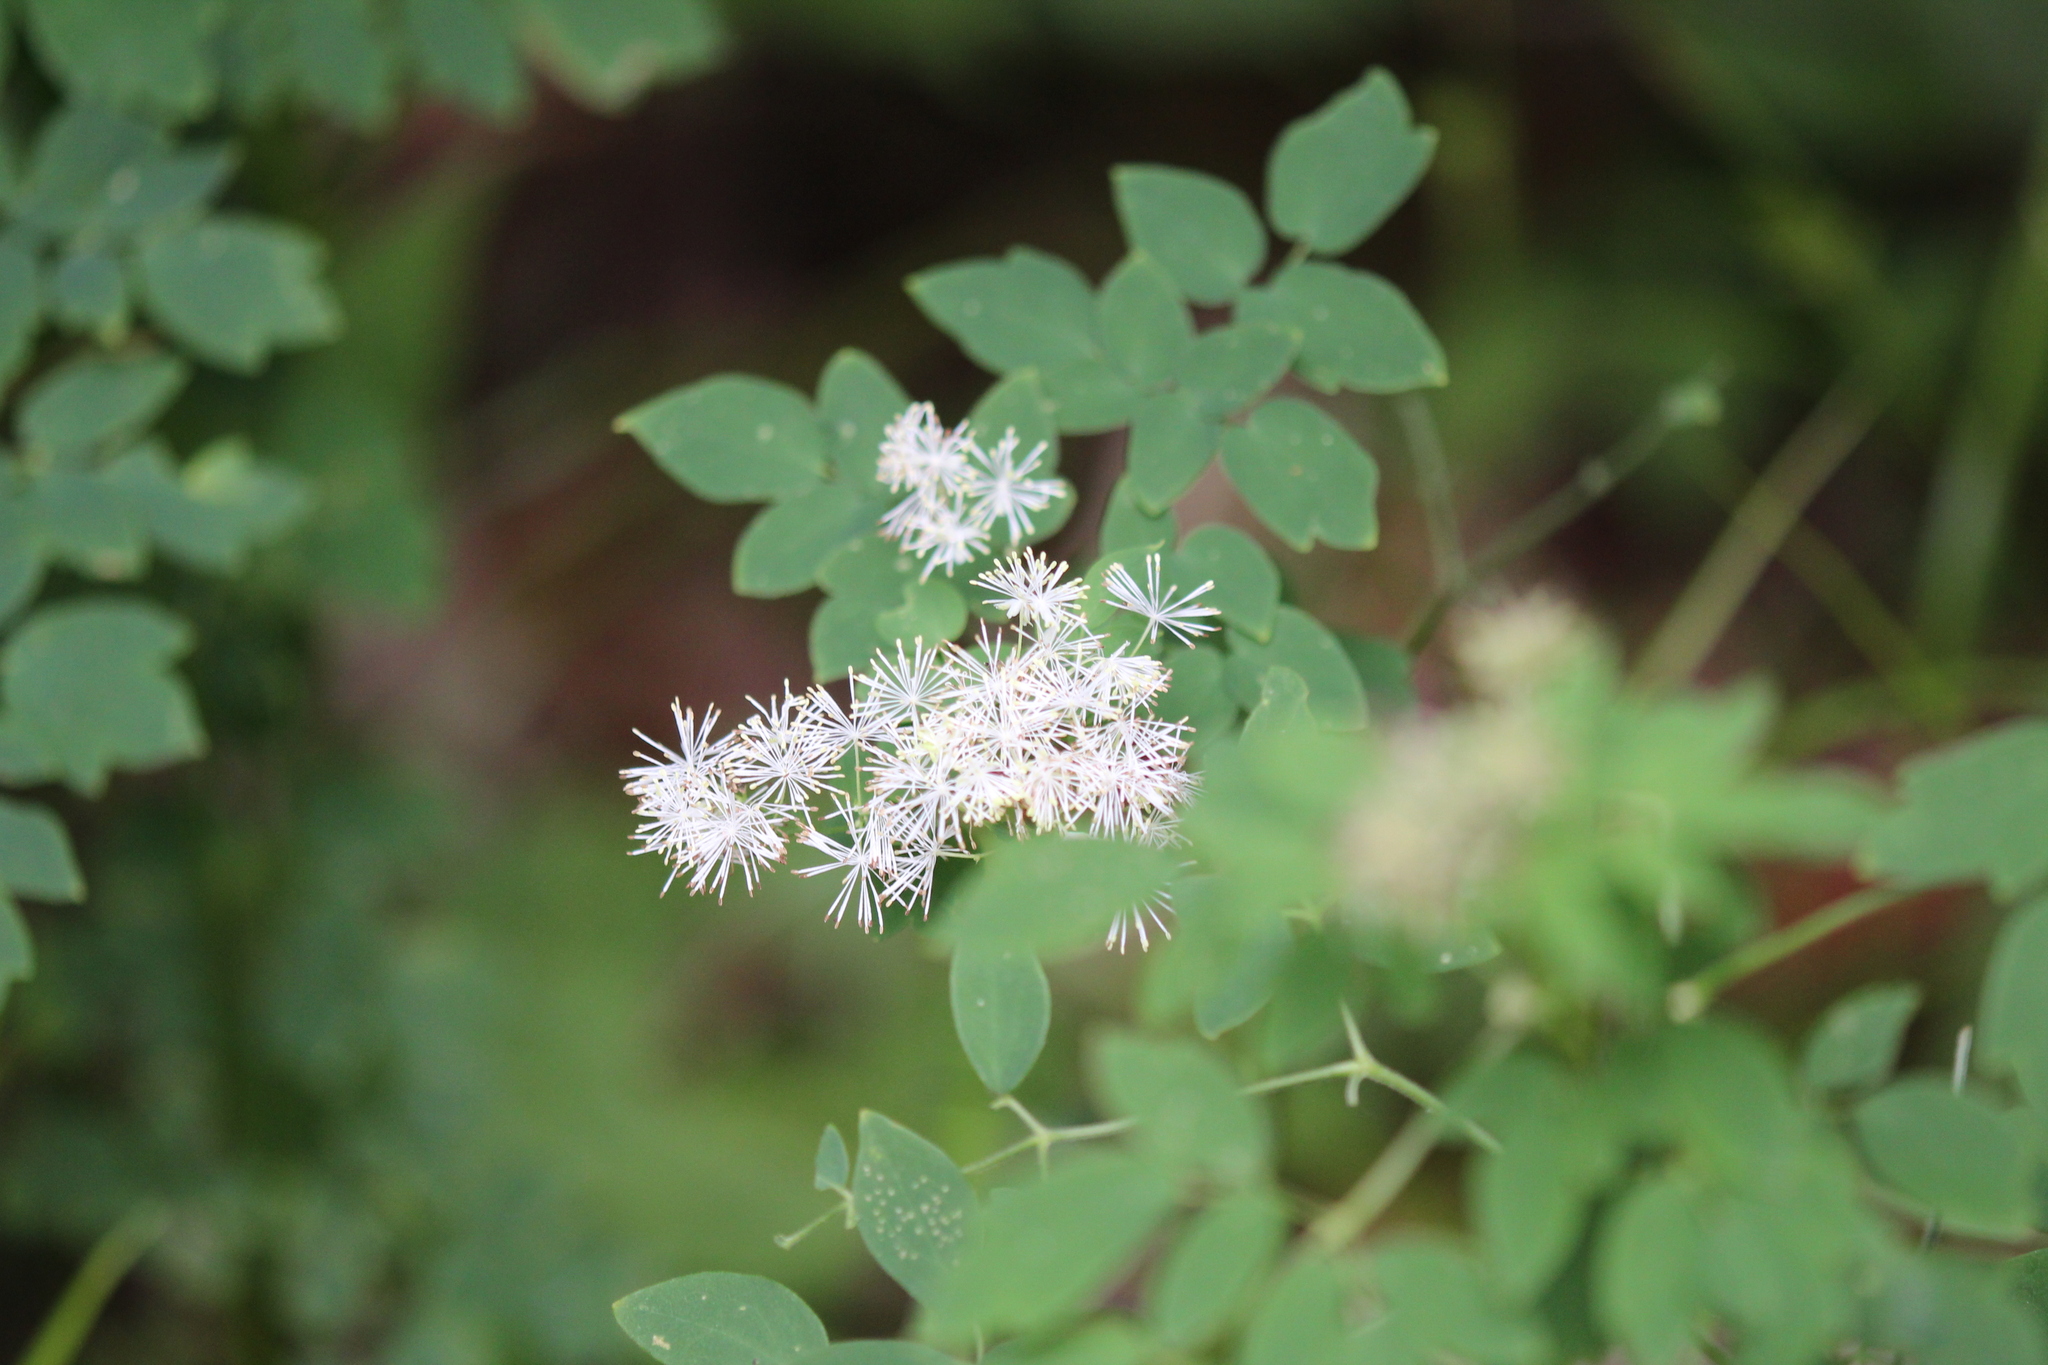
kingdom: Plantae
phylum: Tracheophyta
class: Magnoliopsida
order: Ranunculales
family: Ranunculaceae
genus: Thalictrum
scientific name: Thalictrum pubescens
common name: King-of-the-meadow
